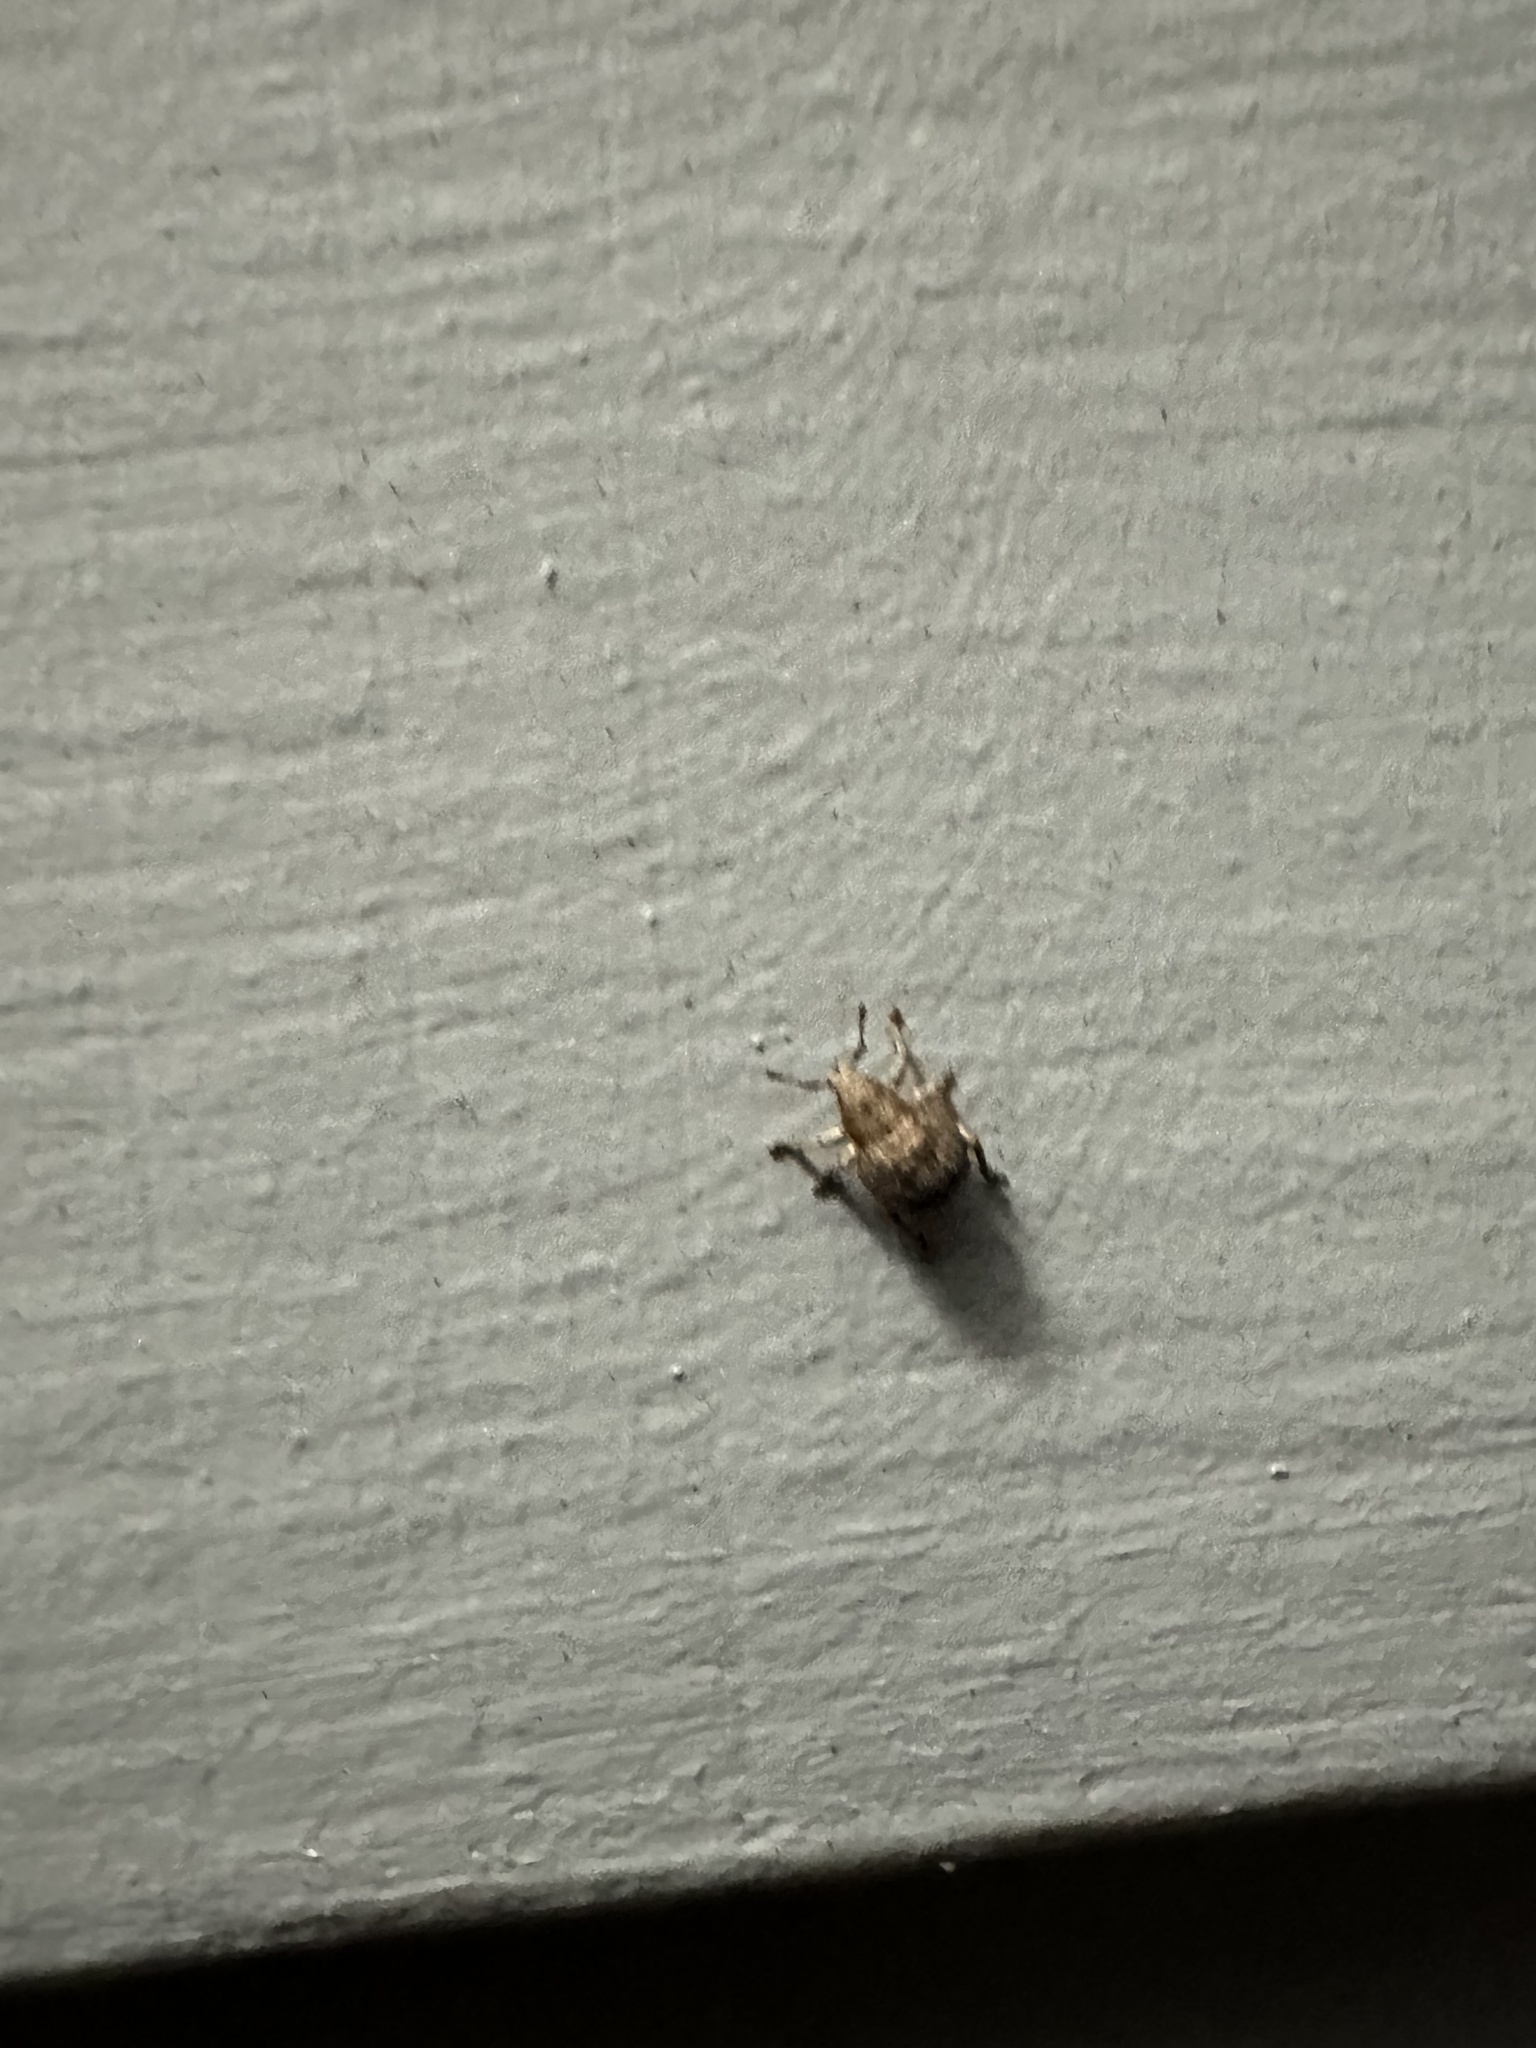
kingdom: Animalia
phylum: Arthropoda
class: Insecta
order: Coleoptera
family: Curculionidae
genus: Pseudocneorhinus
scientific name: Pseudocneorhinus bifasciatus
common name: Two-banded japanese weevil
